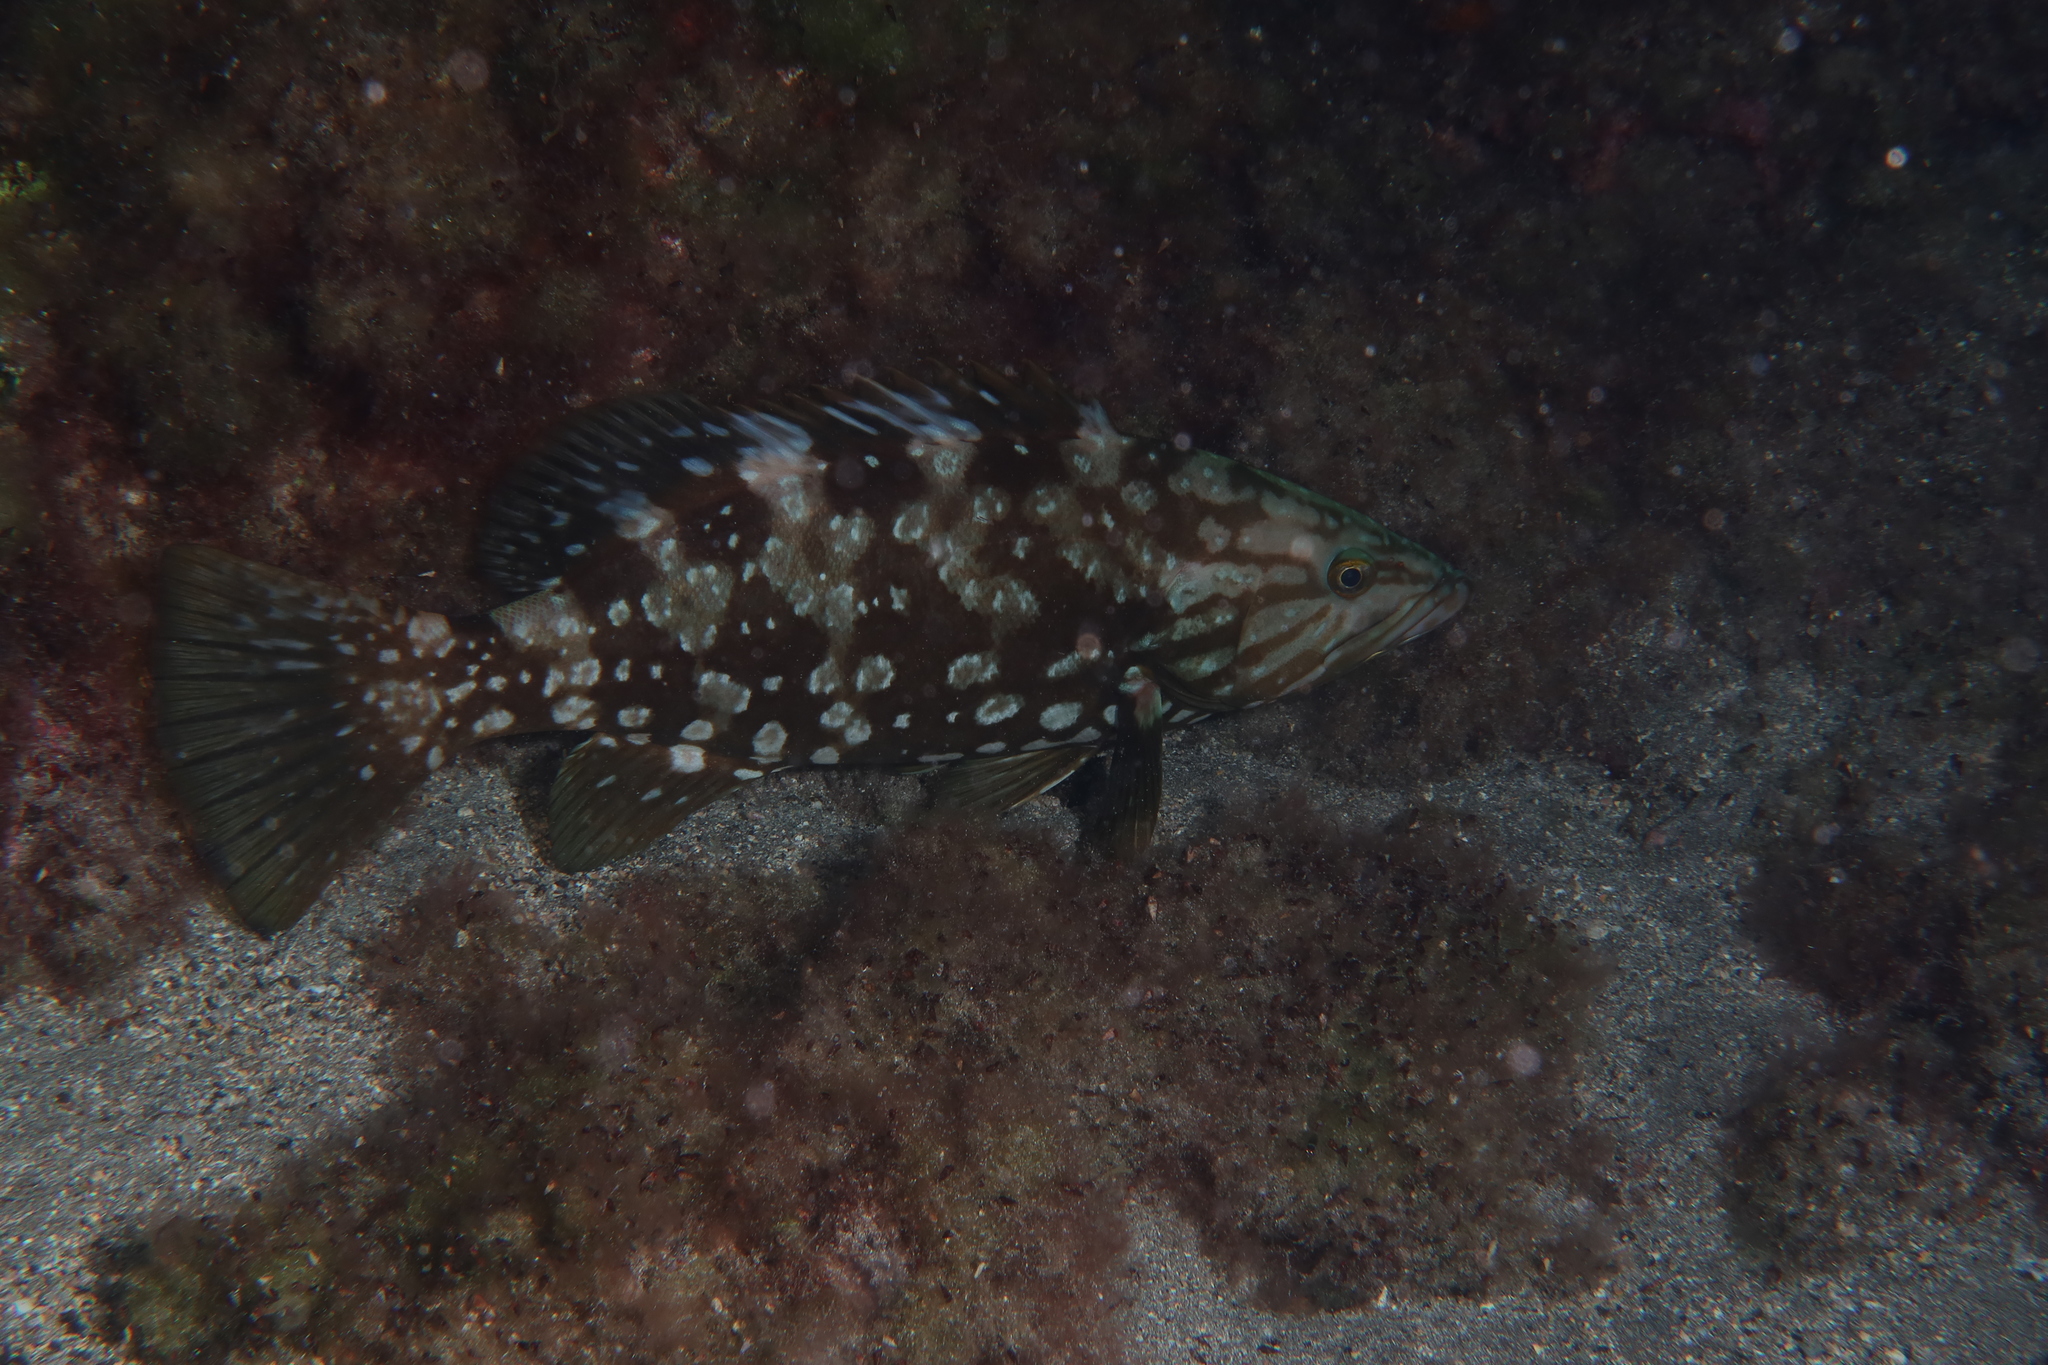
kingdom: Animalia
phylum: Chordata
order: Perciformes
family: Serranidae
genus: Mycteroperca
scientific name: Mycteroperca fusca
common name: Island grouper
